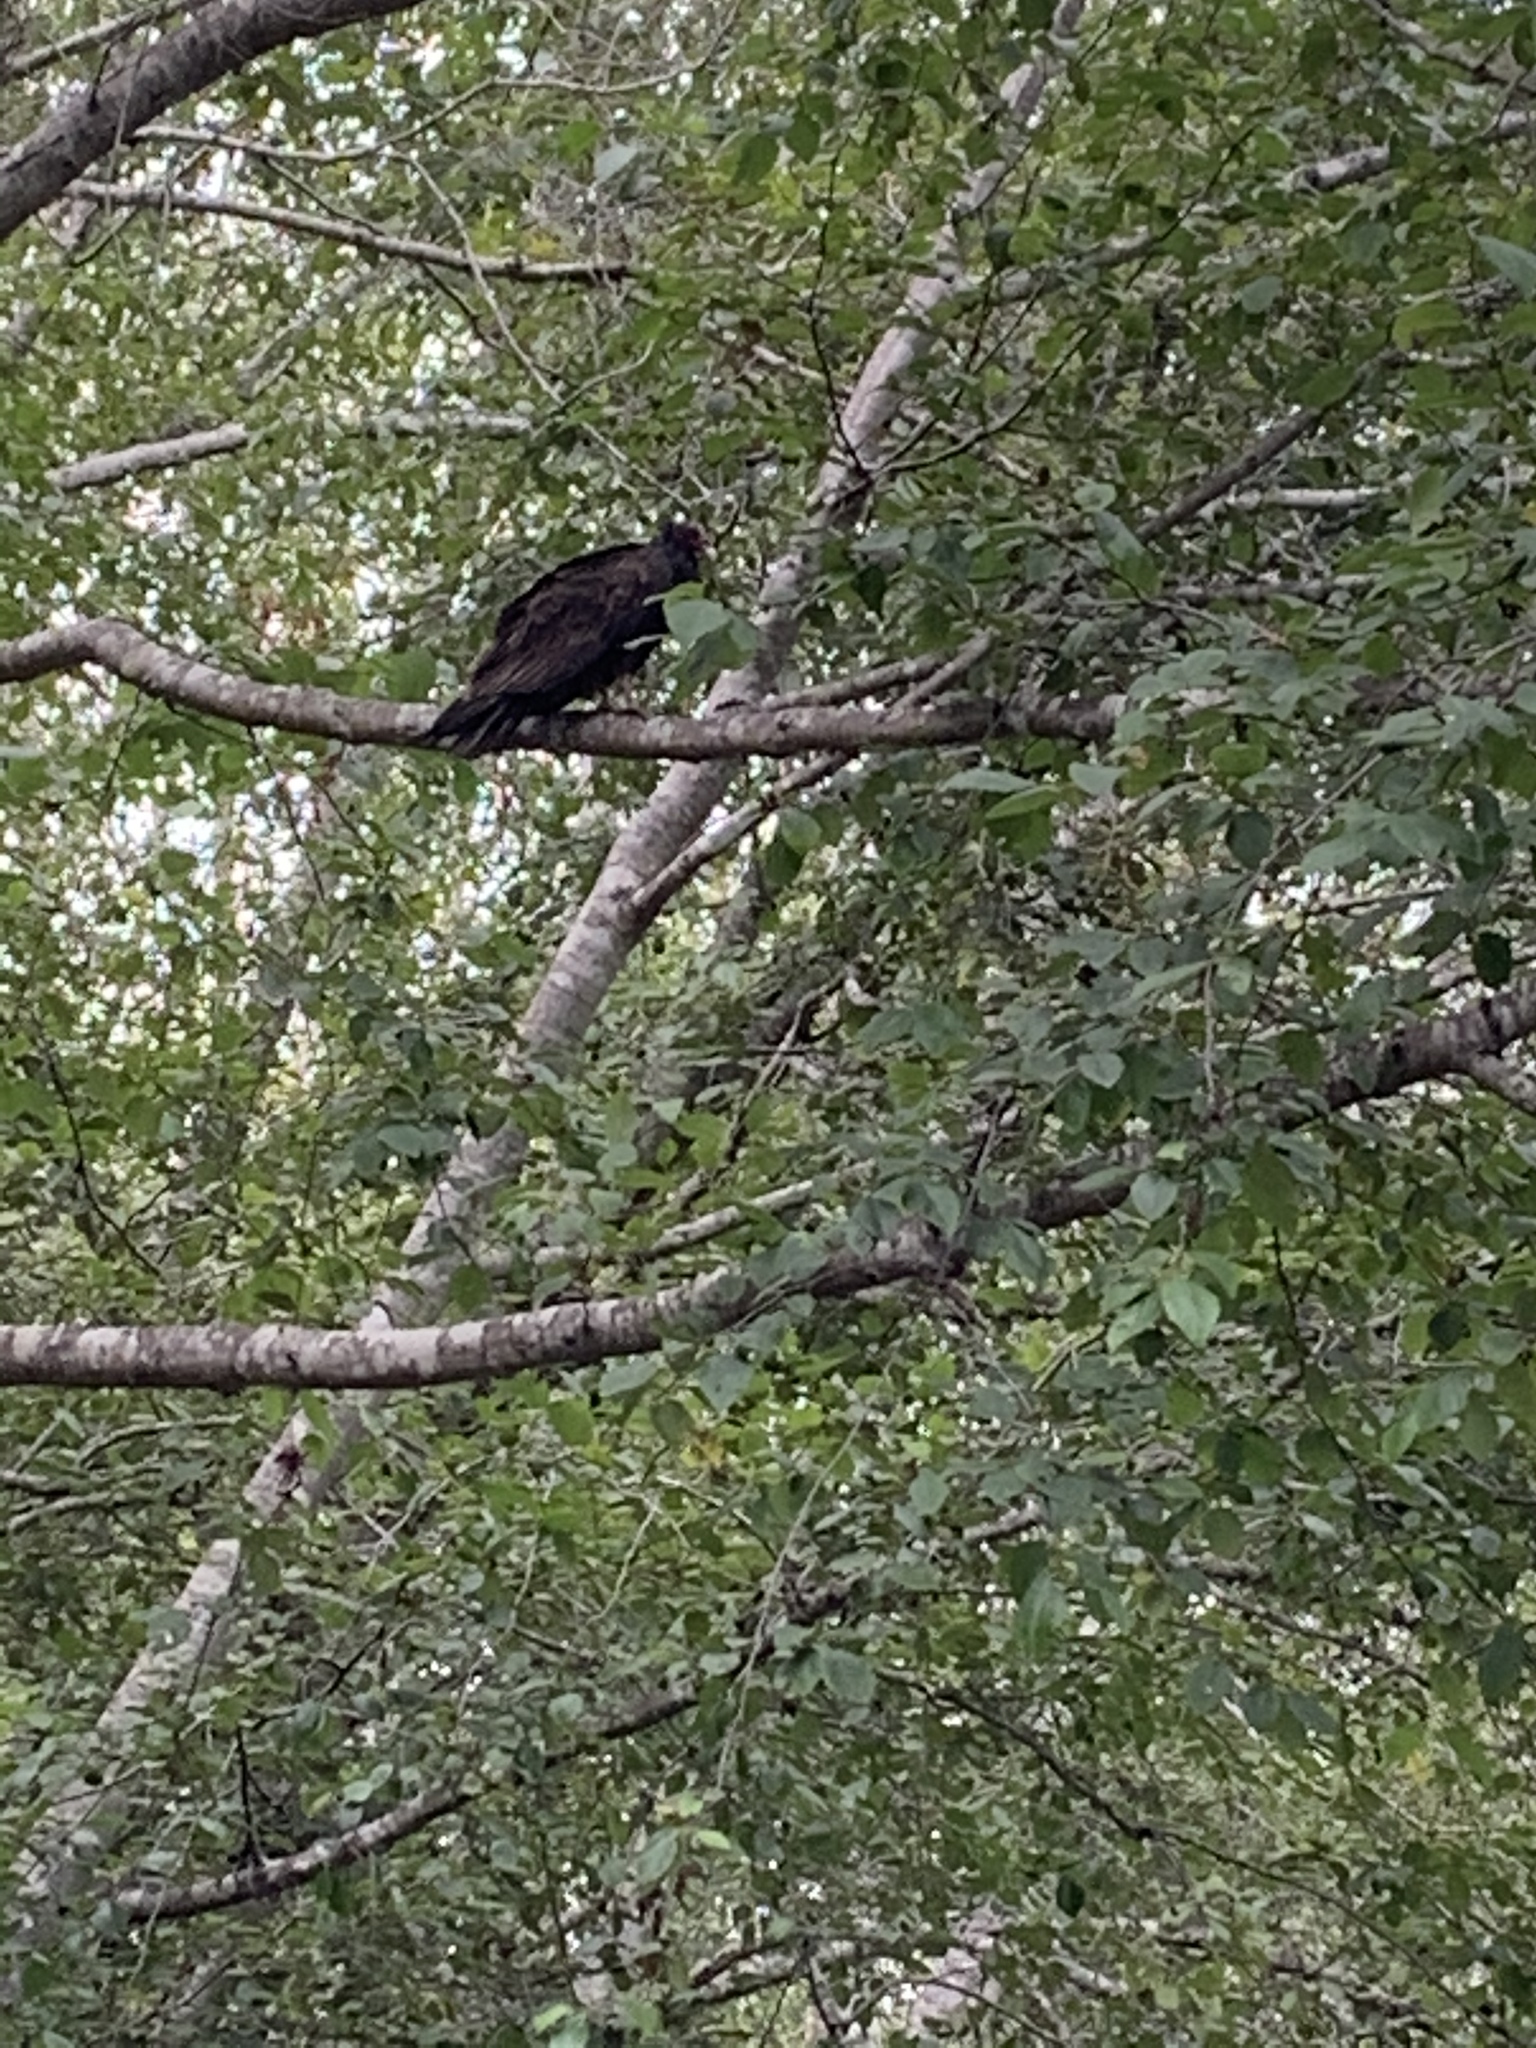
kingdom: Animalia
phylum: Chordata
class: Aves
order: Accipitriformes
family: Cathartidae
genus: Cathartes
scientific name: Cathartes aura
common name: Turkey vulture
